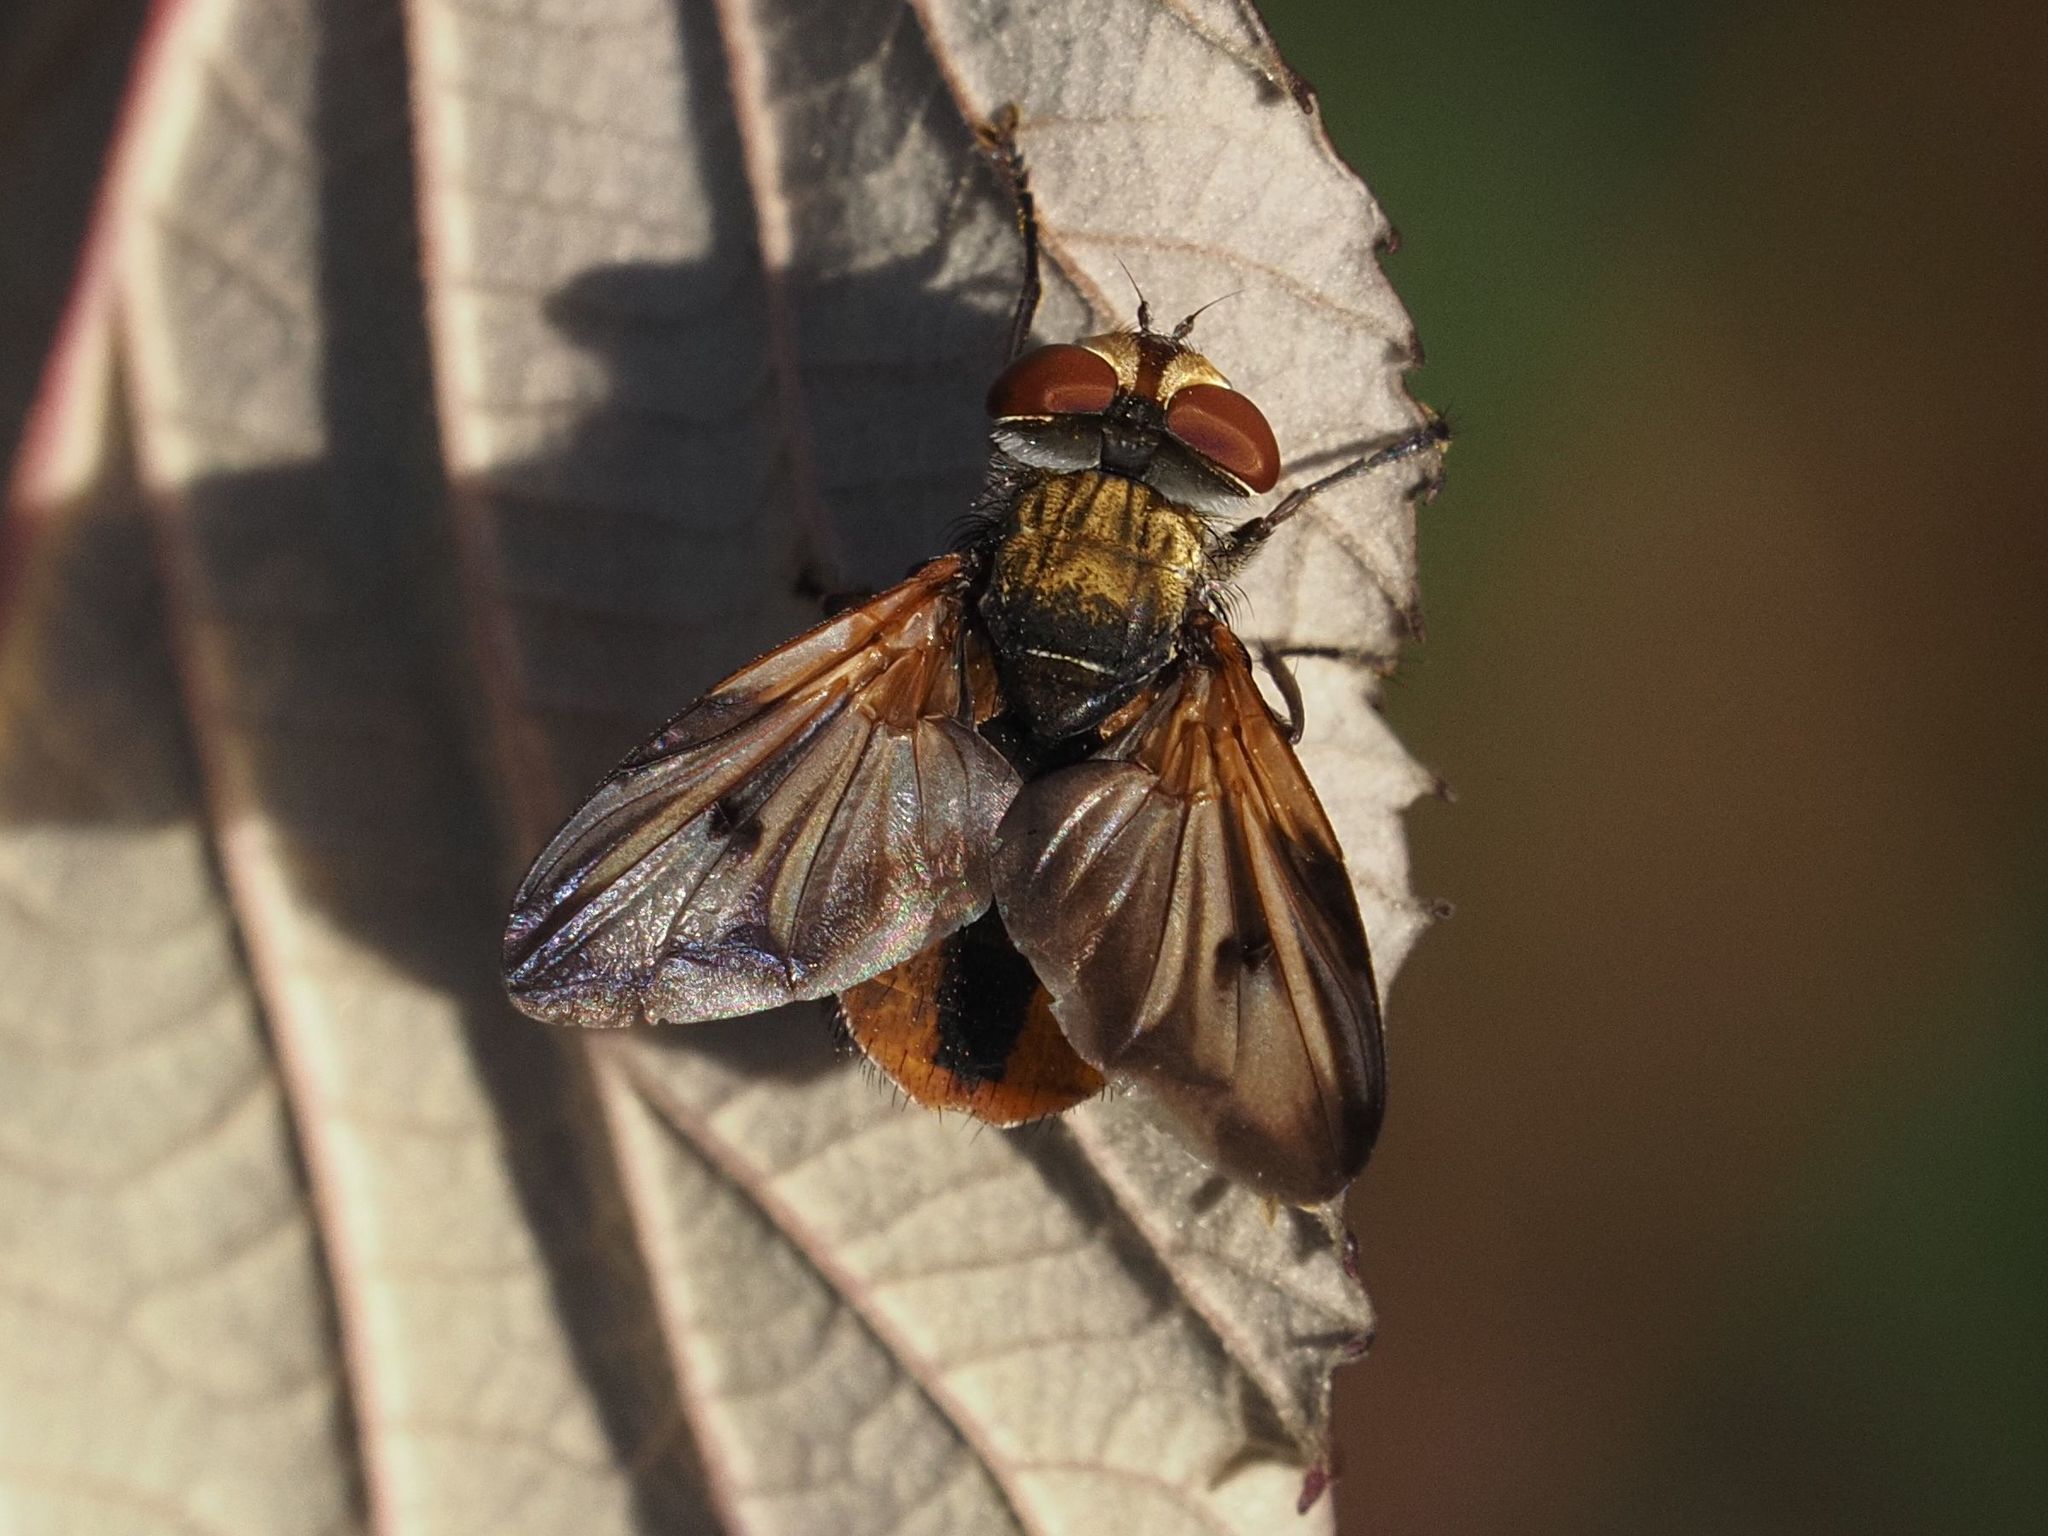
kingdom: Animalia
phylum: Arthropoda
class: Insecta
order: Diptera
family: Tachinidae
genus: Ectophasia
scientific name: Ectophasia crassipennis
